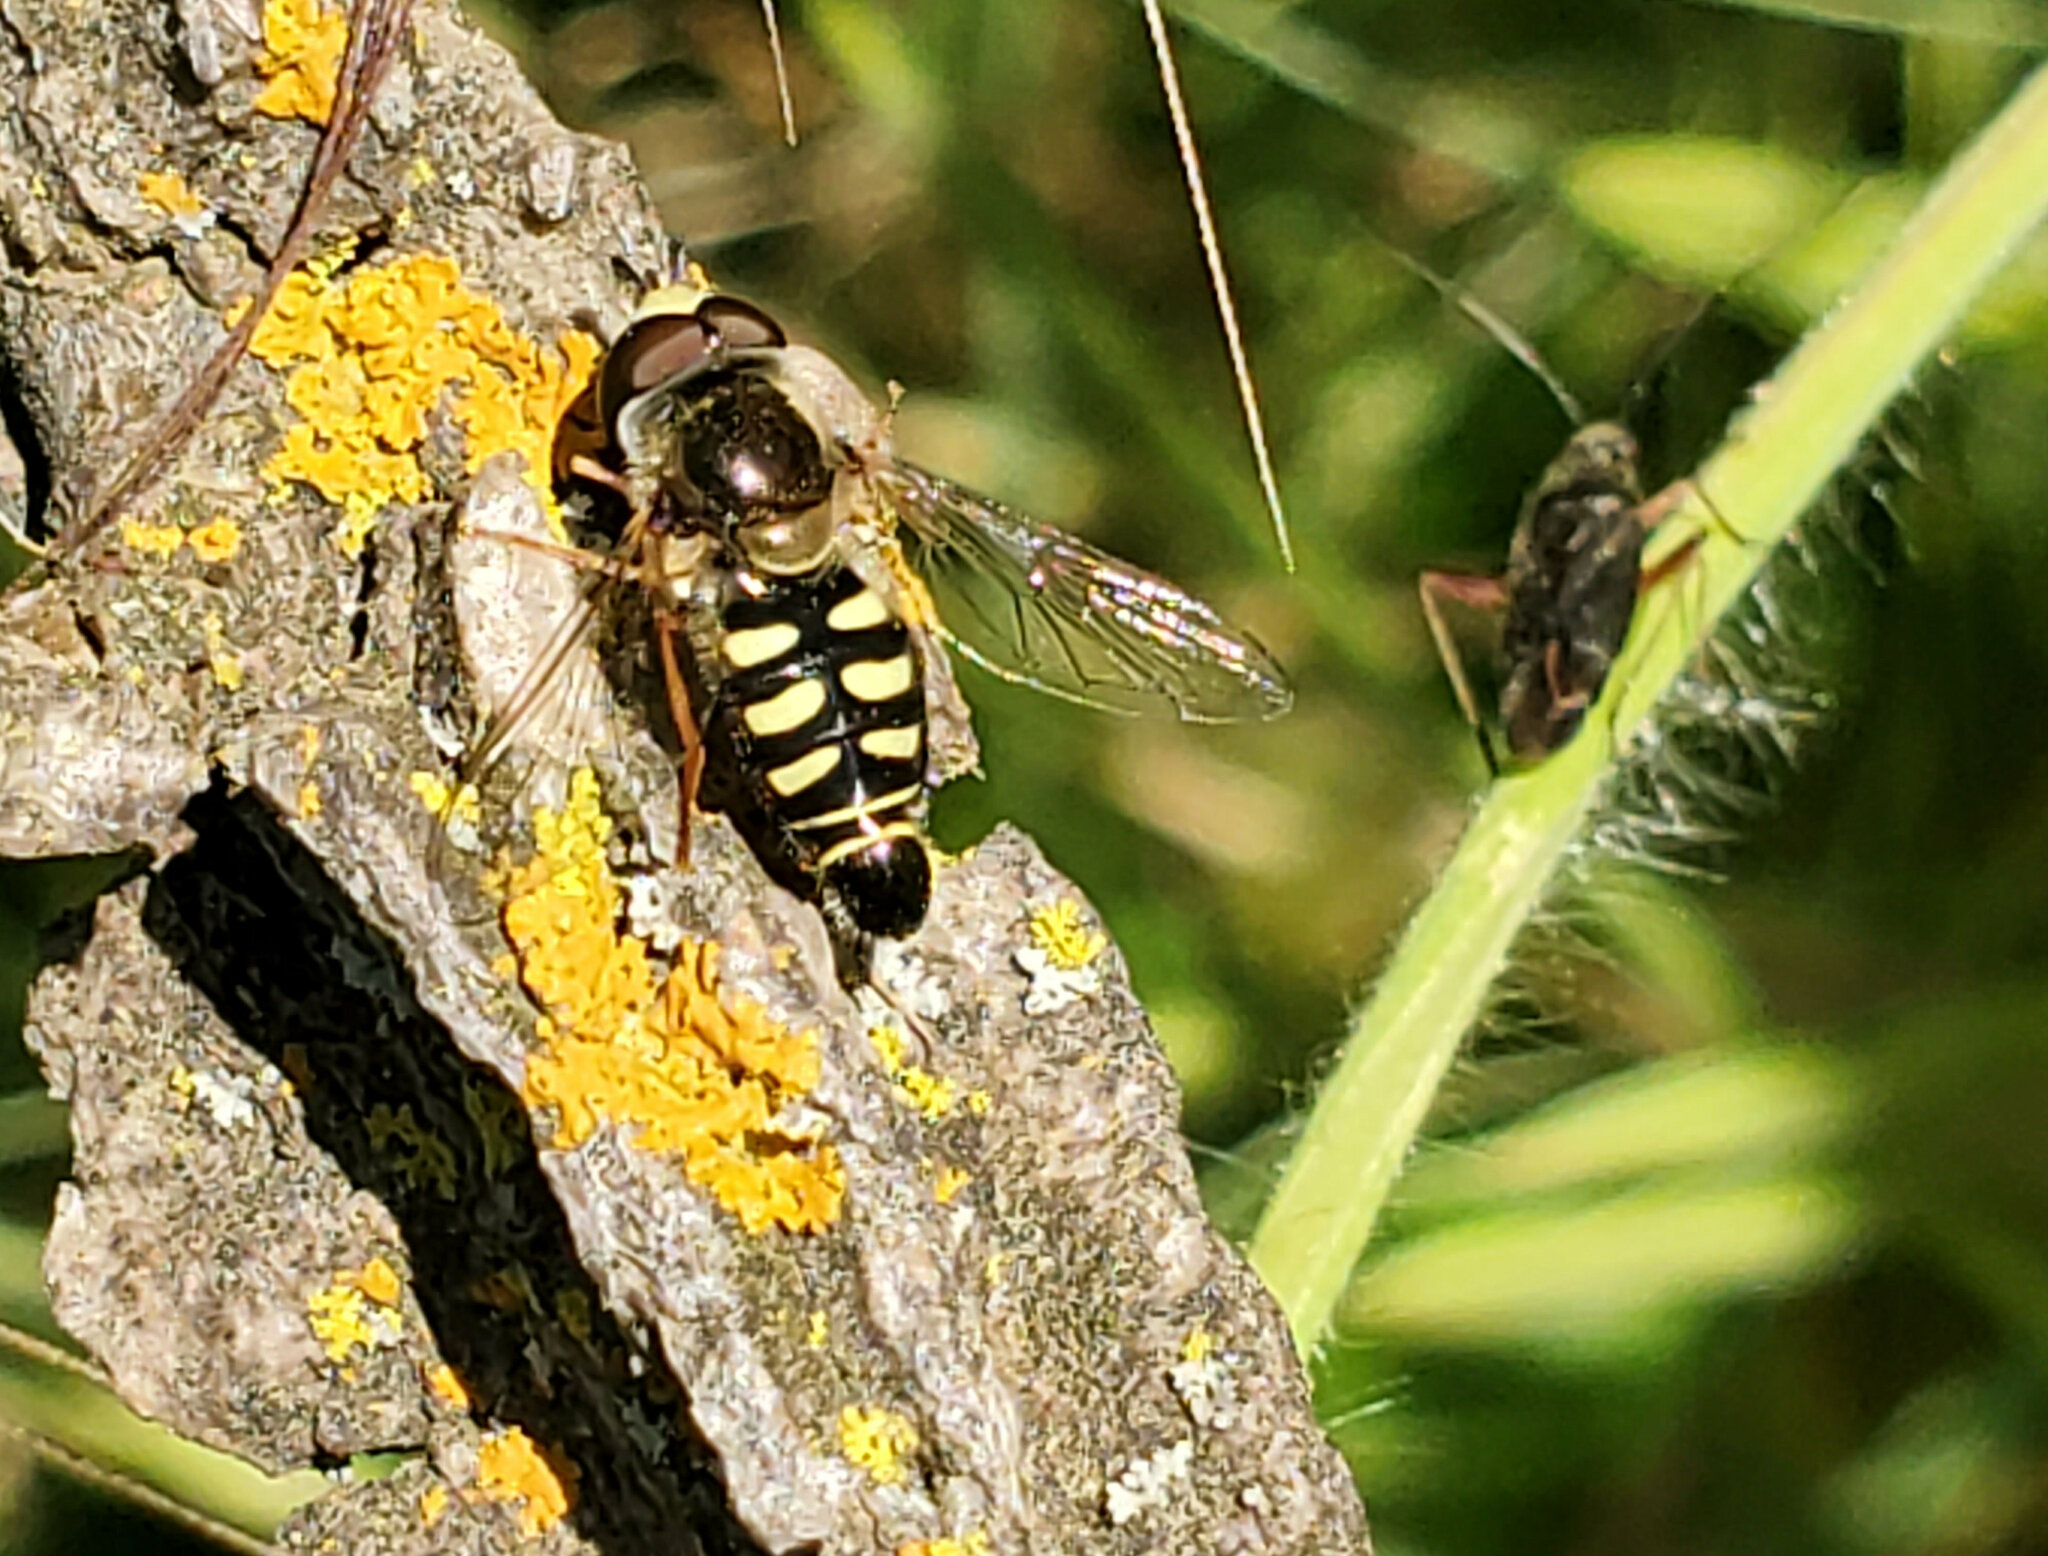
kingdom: Animalia
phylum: Arthropoda
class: Insecta
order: Diptera
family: Syrphidae
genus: Eupeodes
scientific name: Eupeodes volucris
